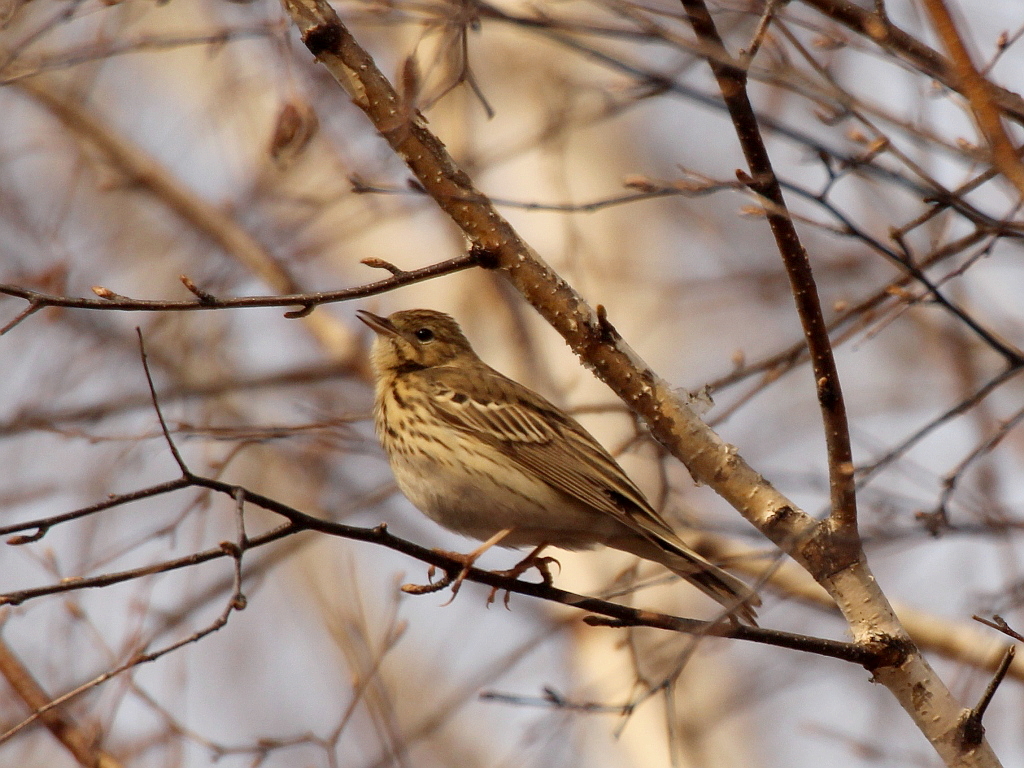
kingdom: Animalia
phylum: Chordata
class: Aves
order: Passeriformes
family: Motacillidae
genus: Anthus
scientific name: Anthus trivialis
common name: Tree pipit
